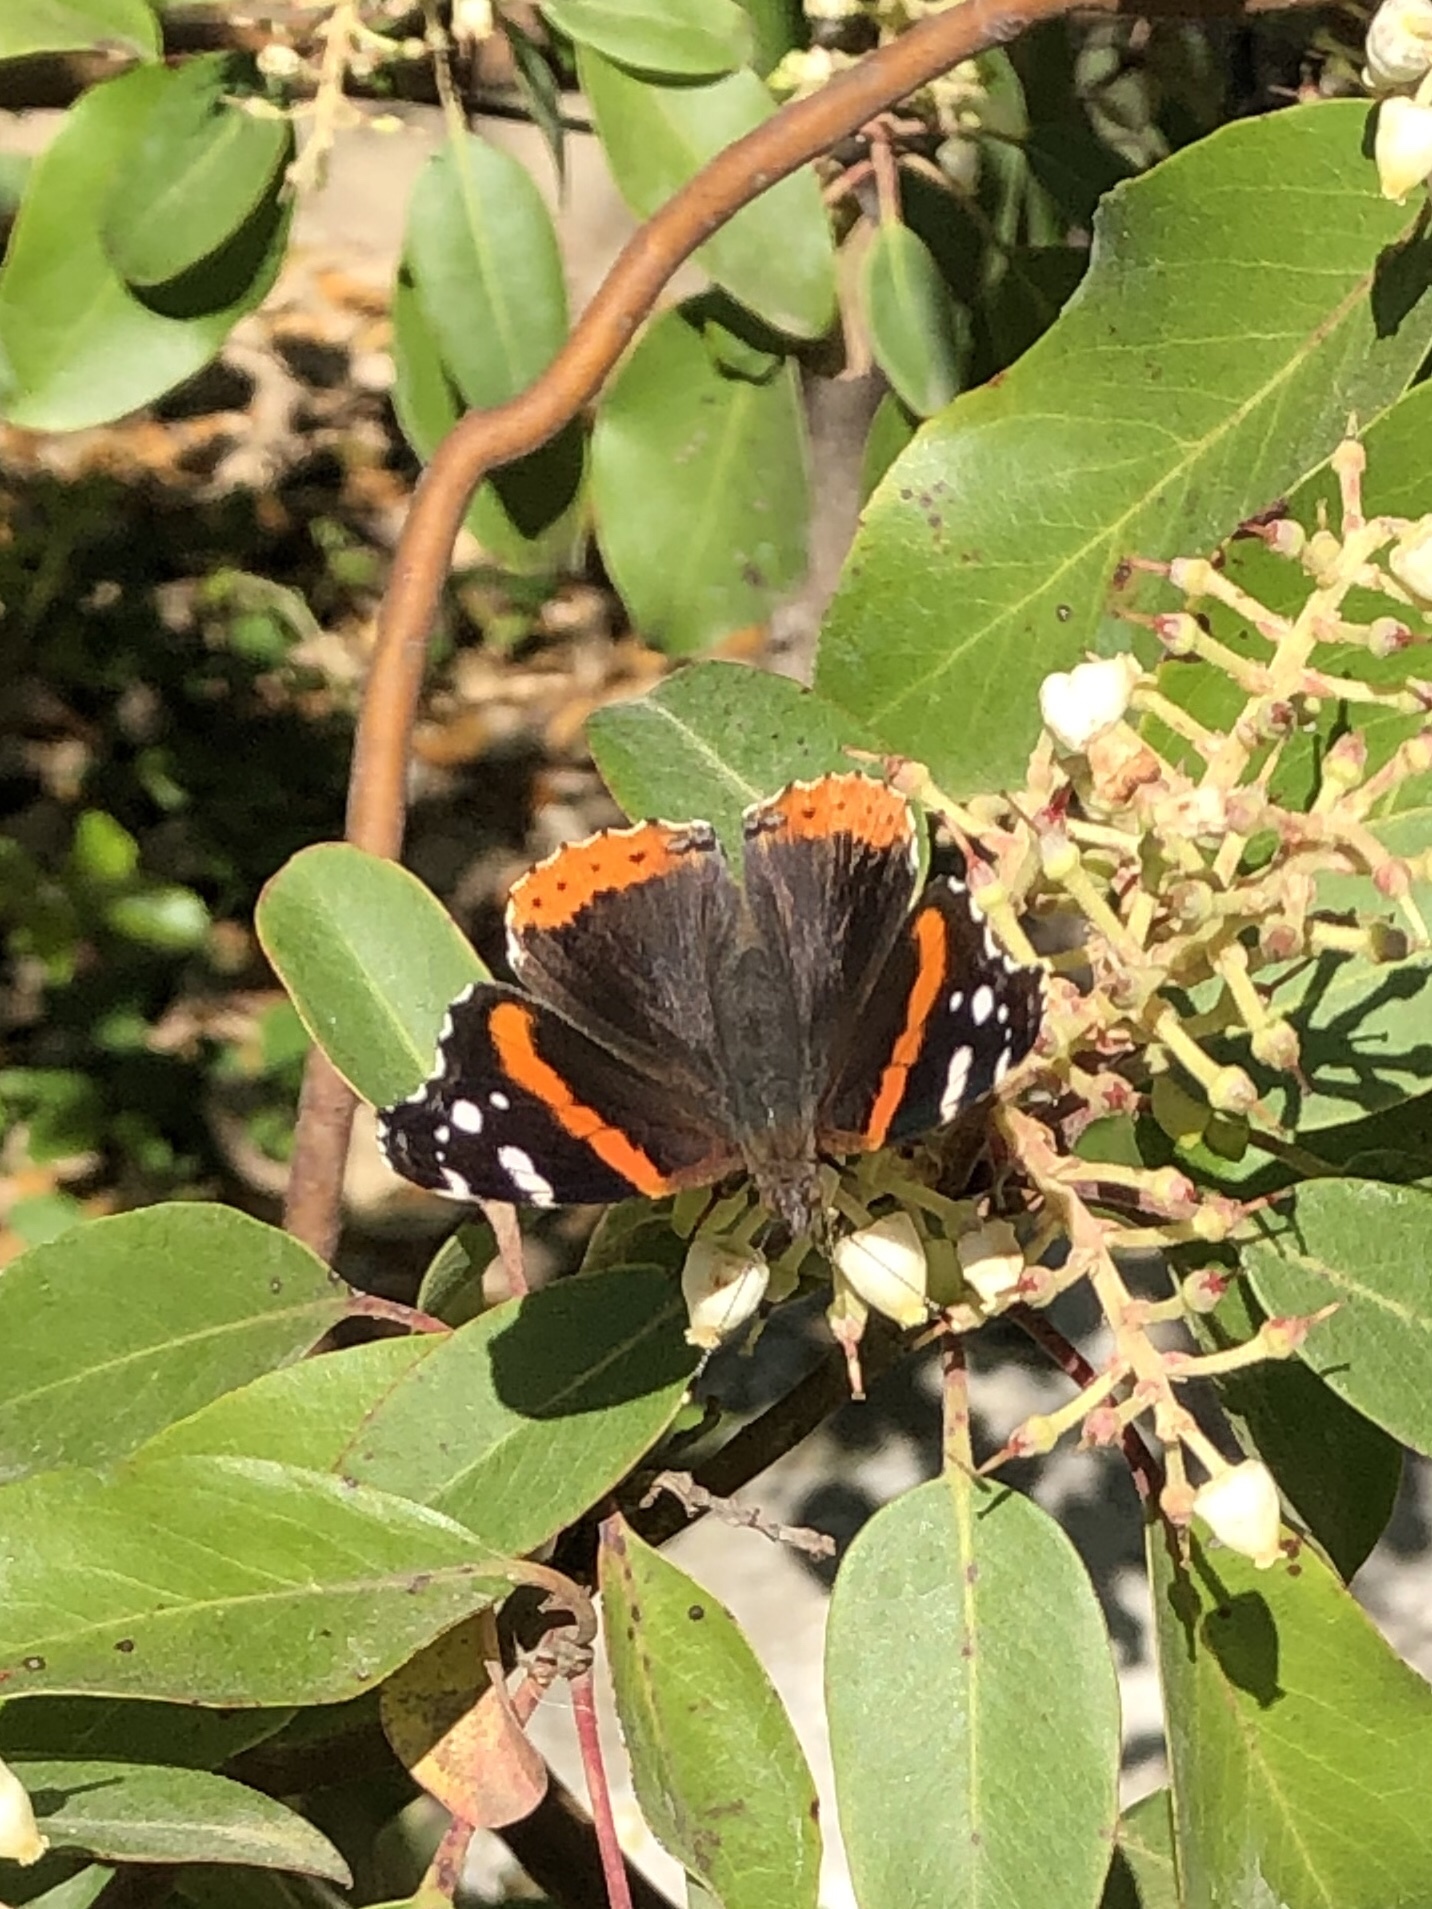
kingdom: Animalia
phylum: Arthropoda
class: Insecta
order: Lepidoptera
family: Nymphalidae
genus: Vanessa
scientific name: Vanessa atalanta
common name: Red admiral
